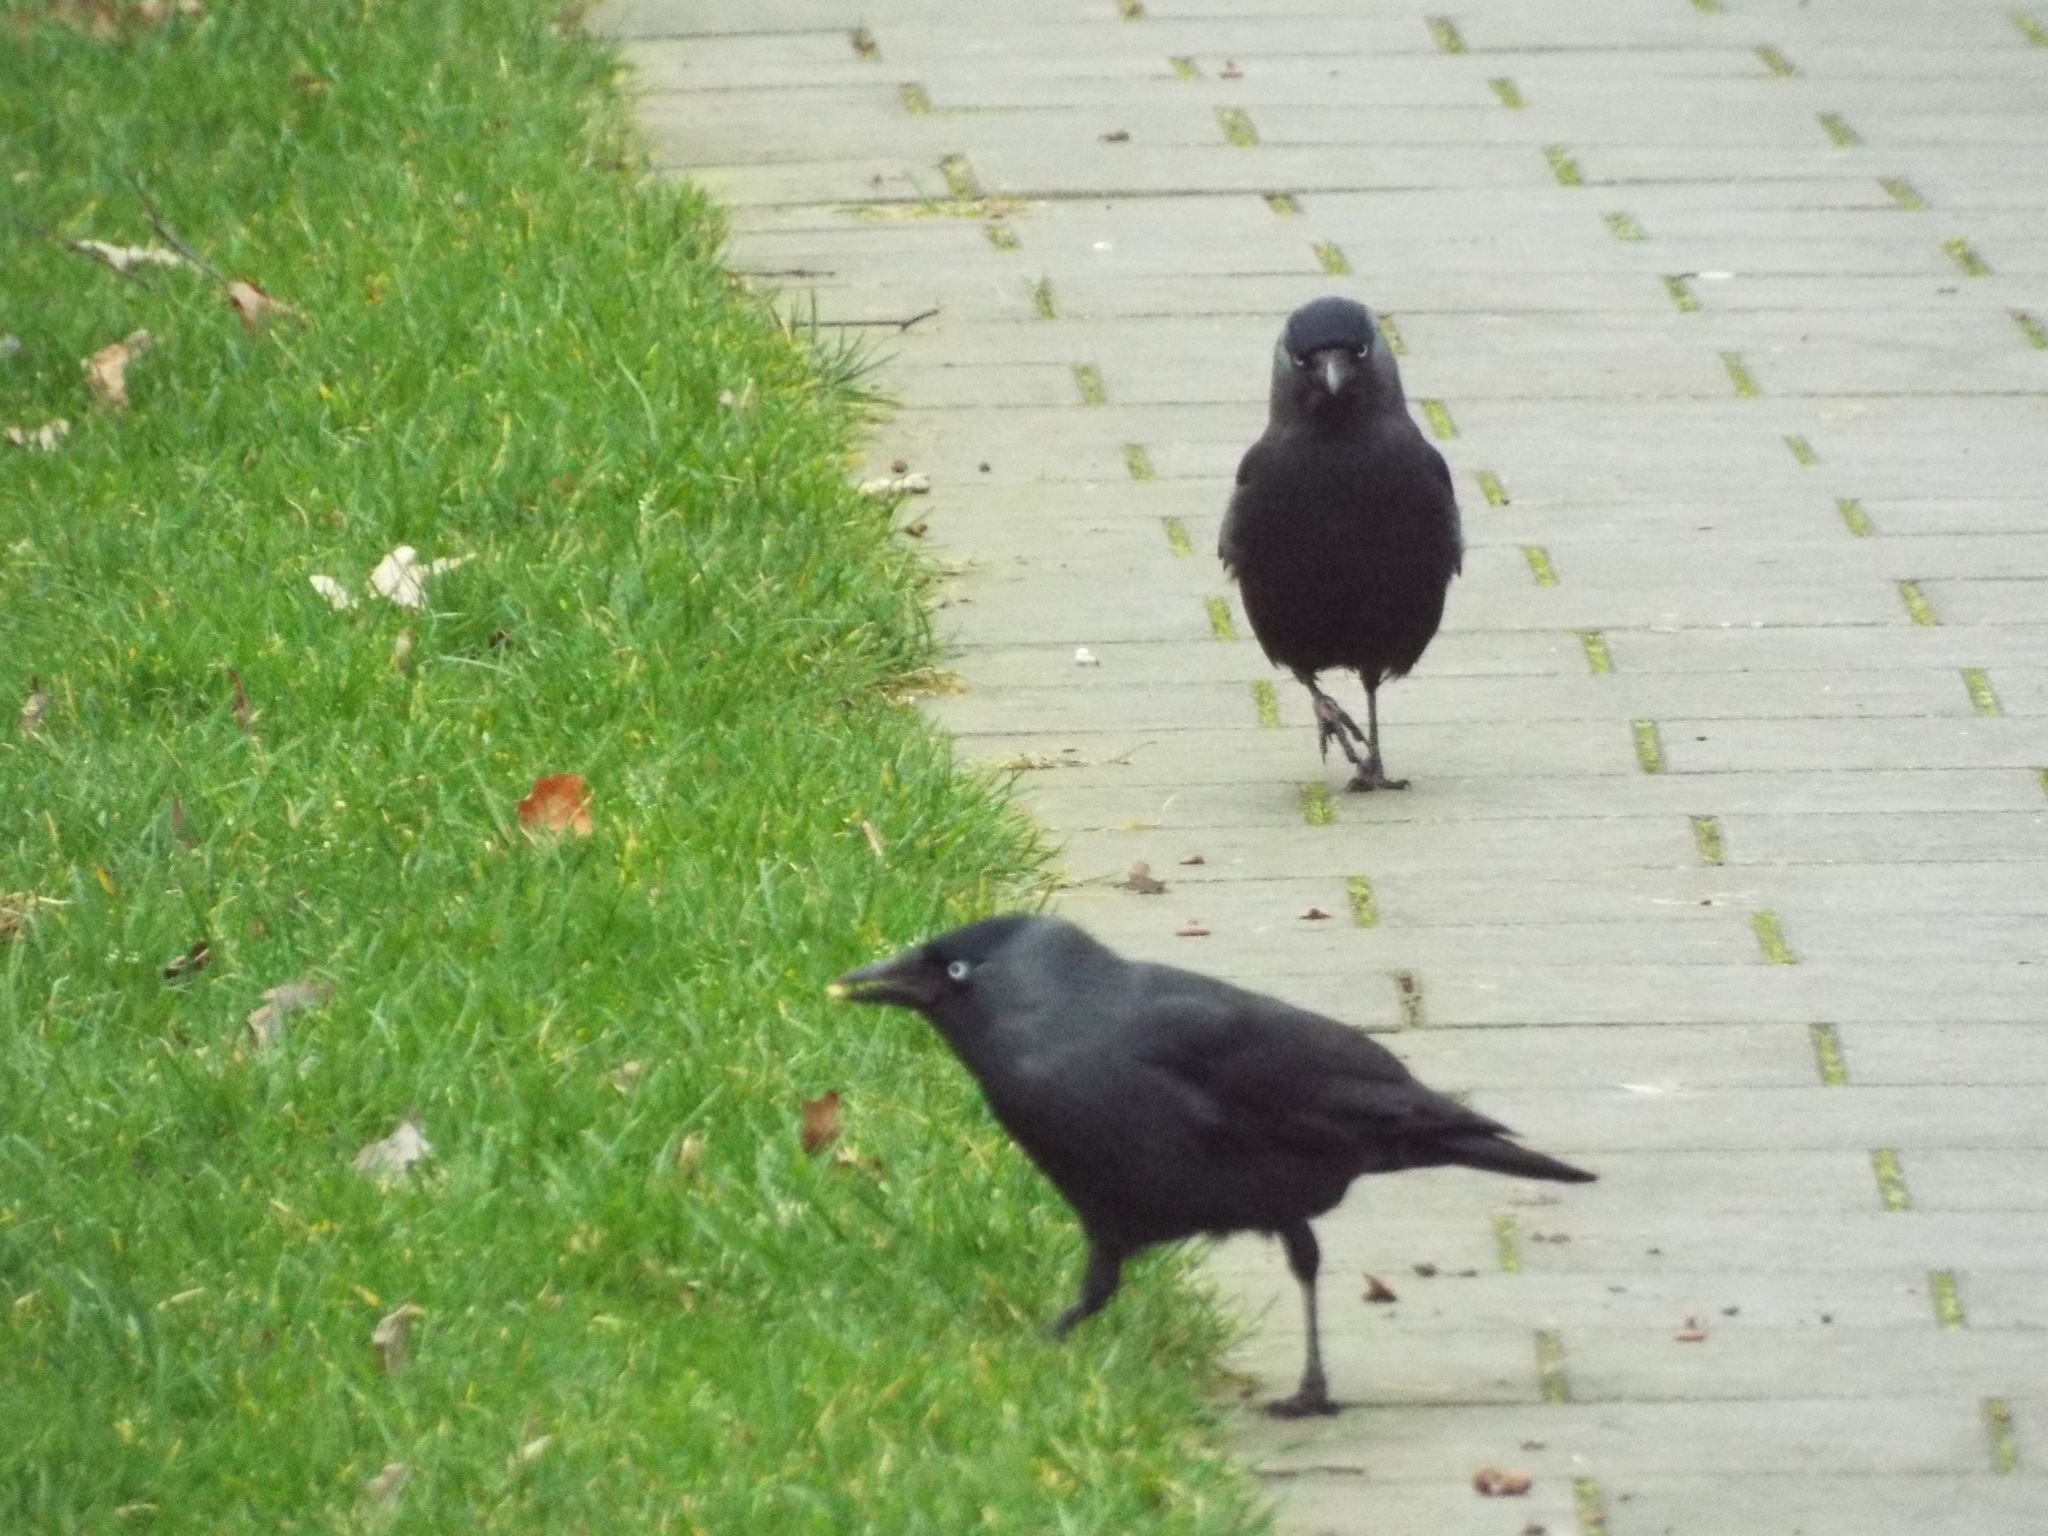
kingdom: Animalia
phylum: Chordata
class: Aves
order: Passeriformes
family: Corvidae
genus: Coloeus
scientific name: Coloeus monedula
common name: Western jackdaw
